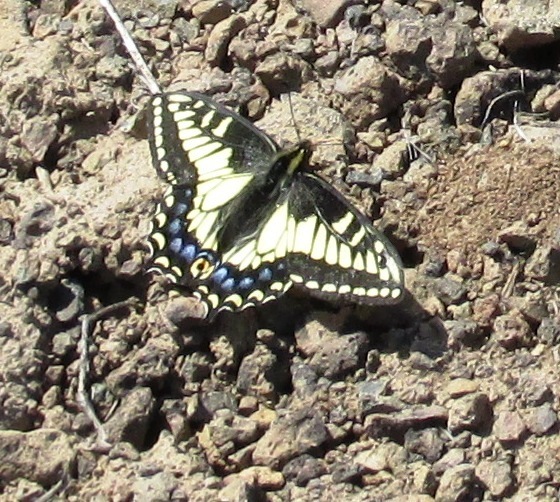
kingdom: Animalia
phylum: Arthropoda
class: Insecta
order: Lepidoptera
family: Papilionidae
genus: Papilio
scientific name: Papilio zelicaon
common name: Anise swallowtail
